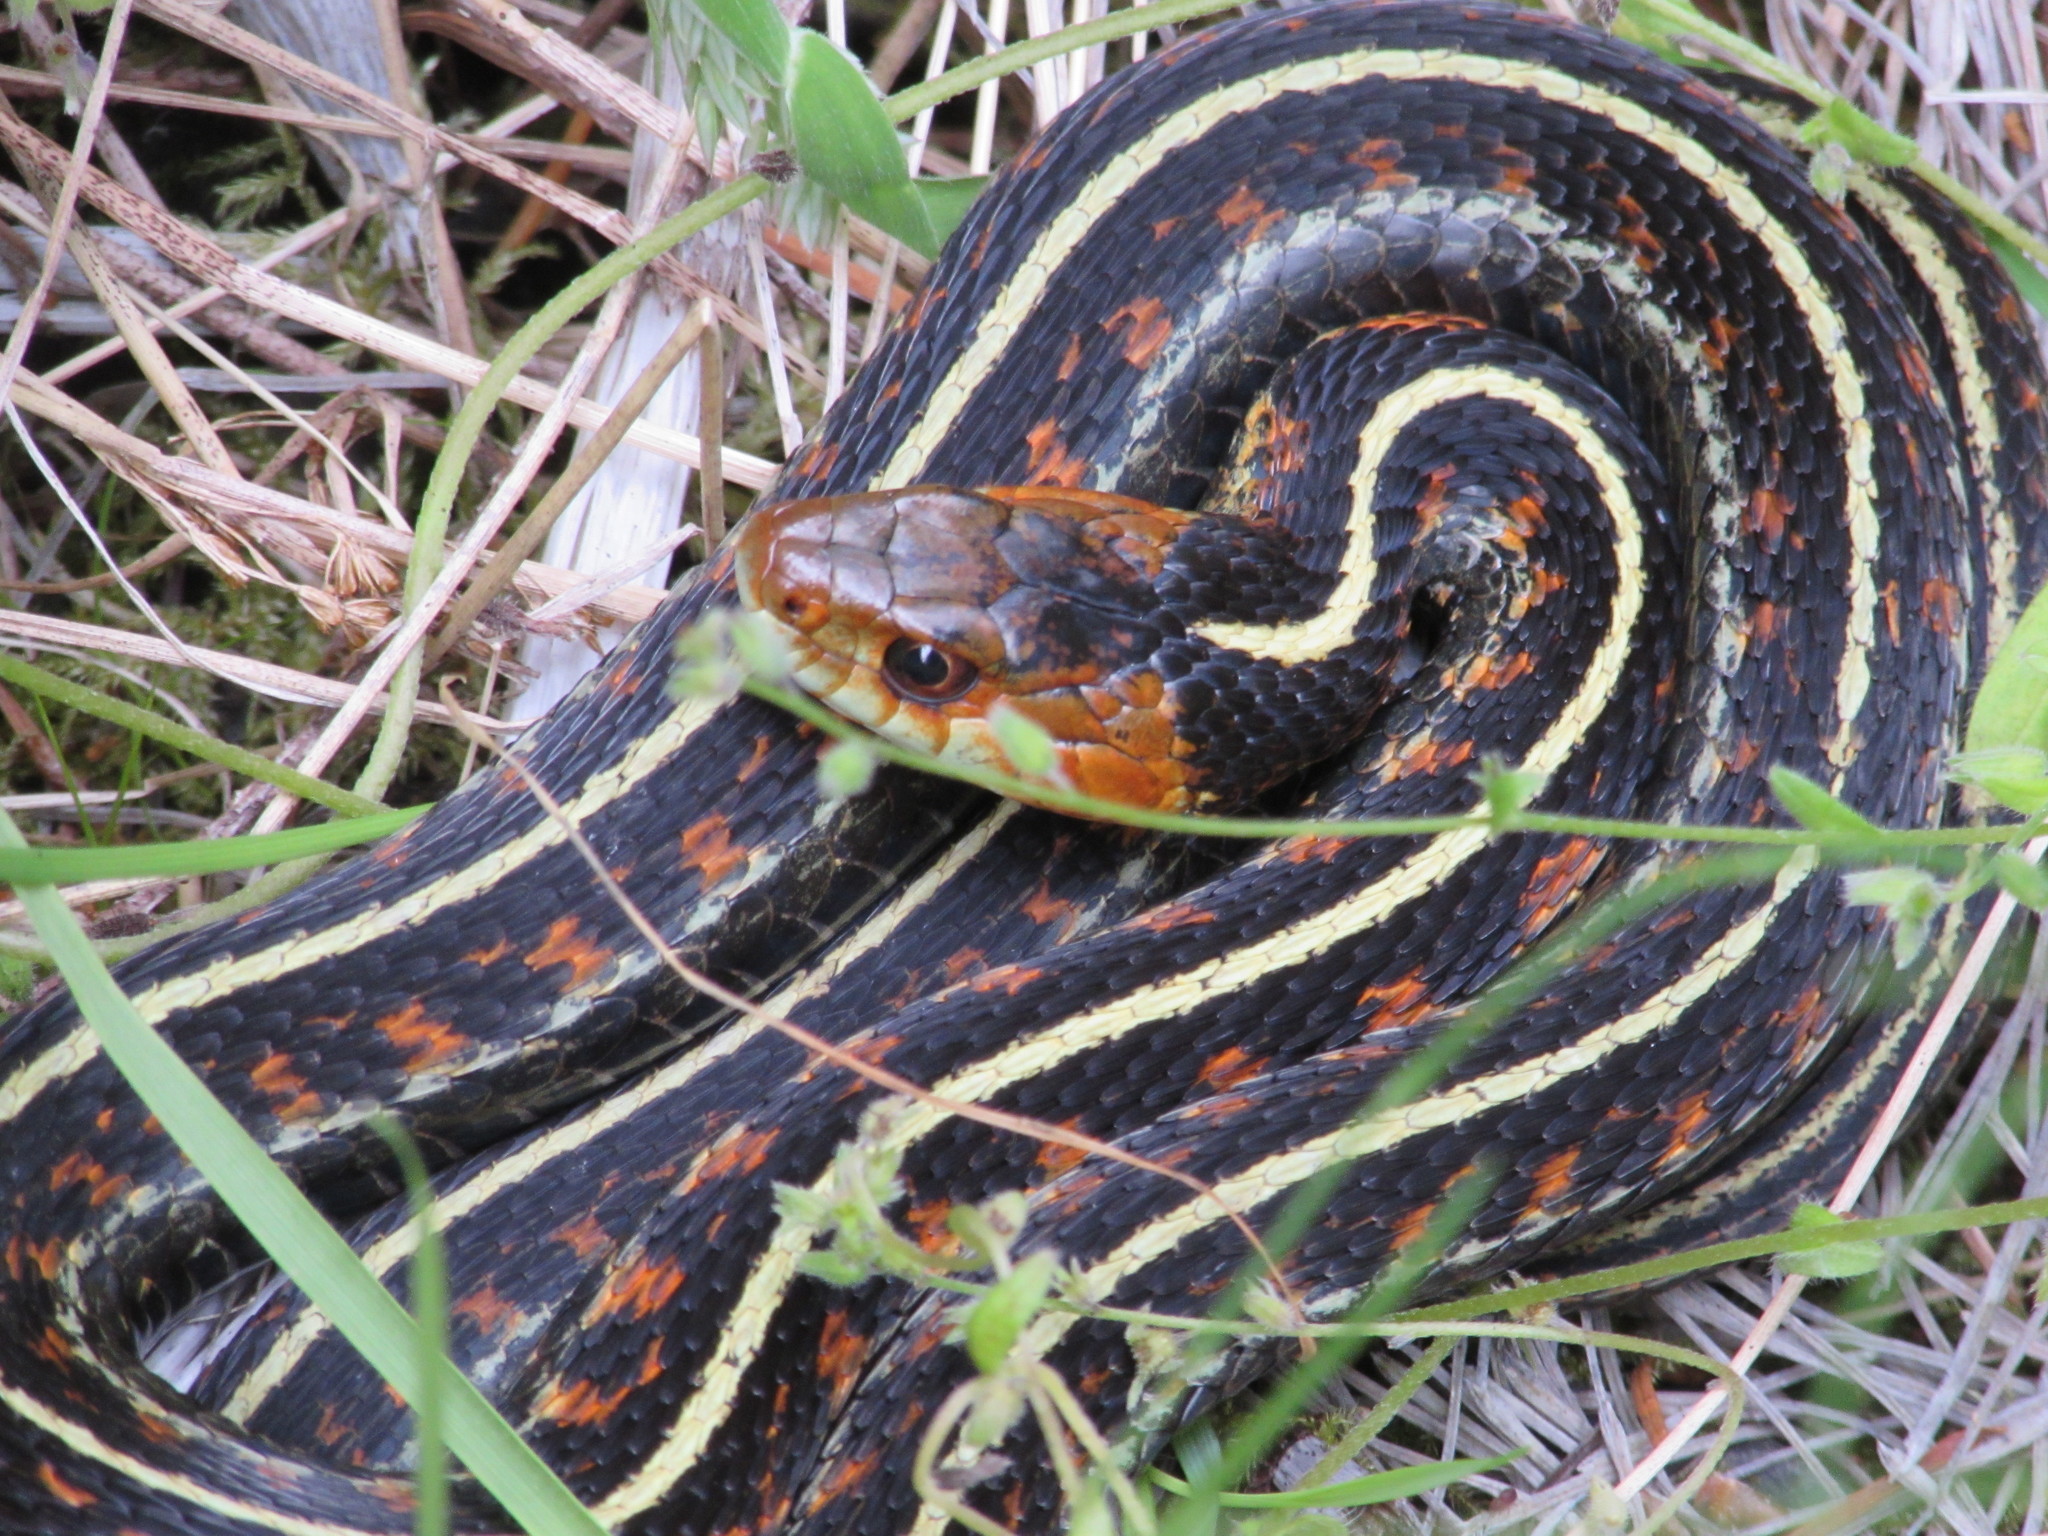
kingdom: Animalia
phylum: Chordata
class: Squamata
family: Colubridae
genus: Thamnophis
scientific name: Thamnophis sirtalis
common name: Common garter snake
